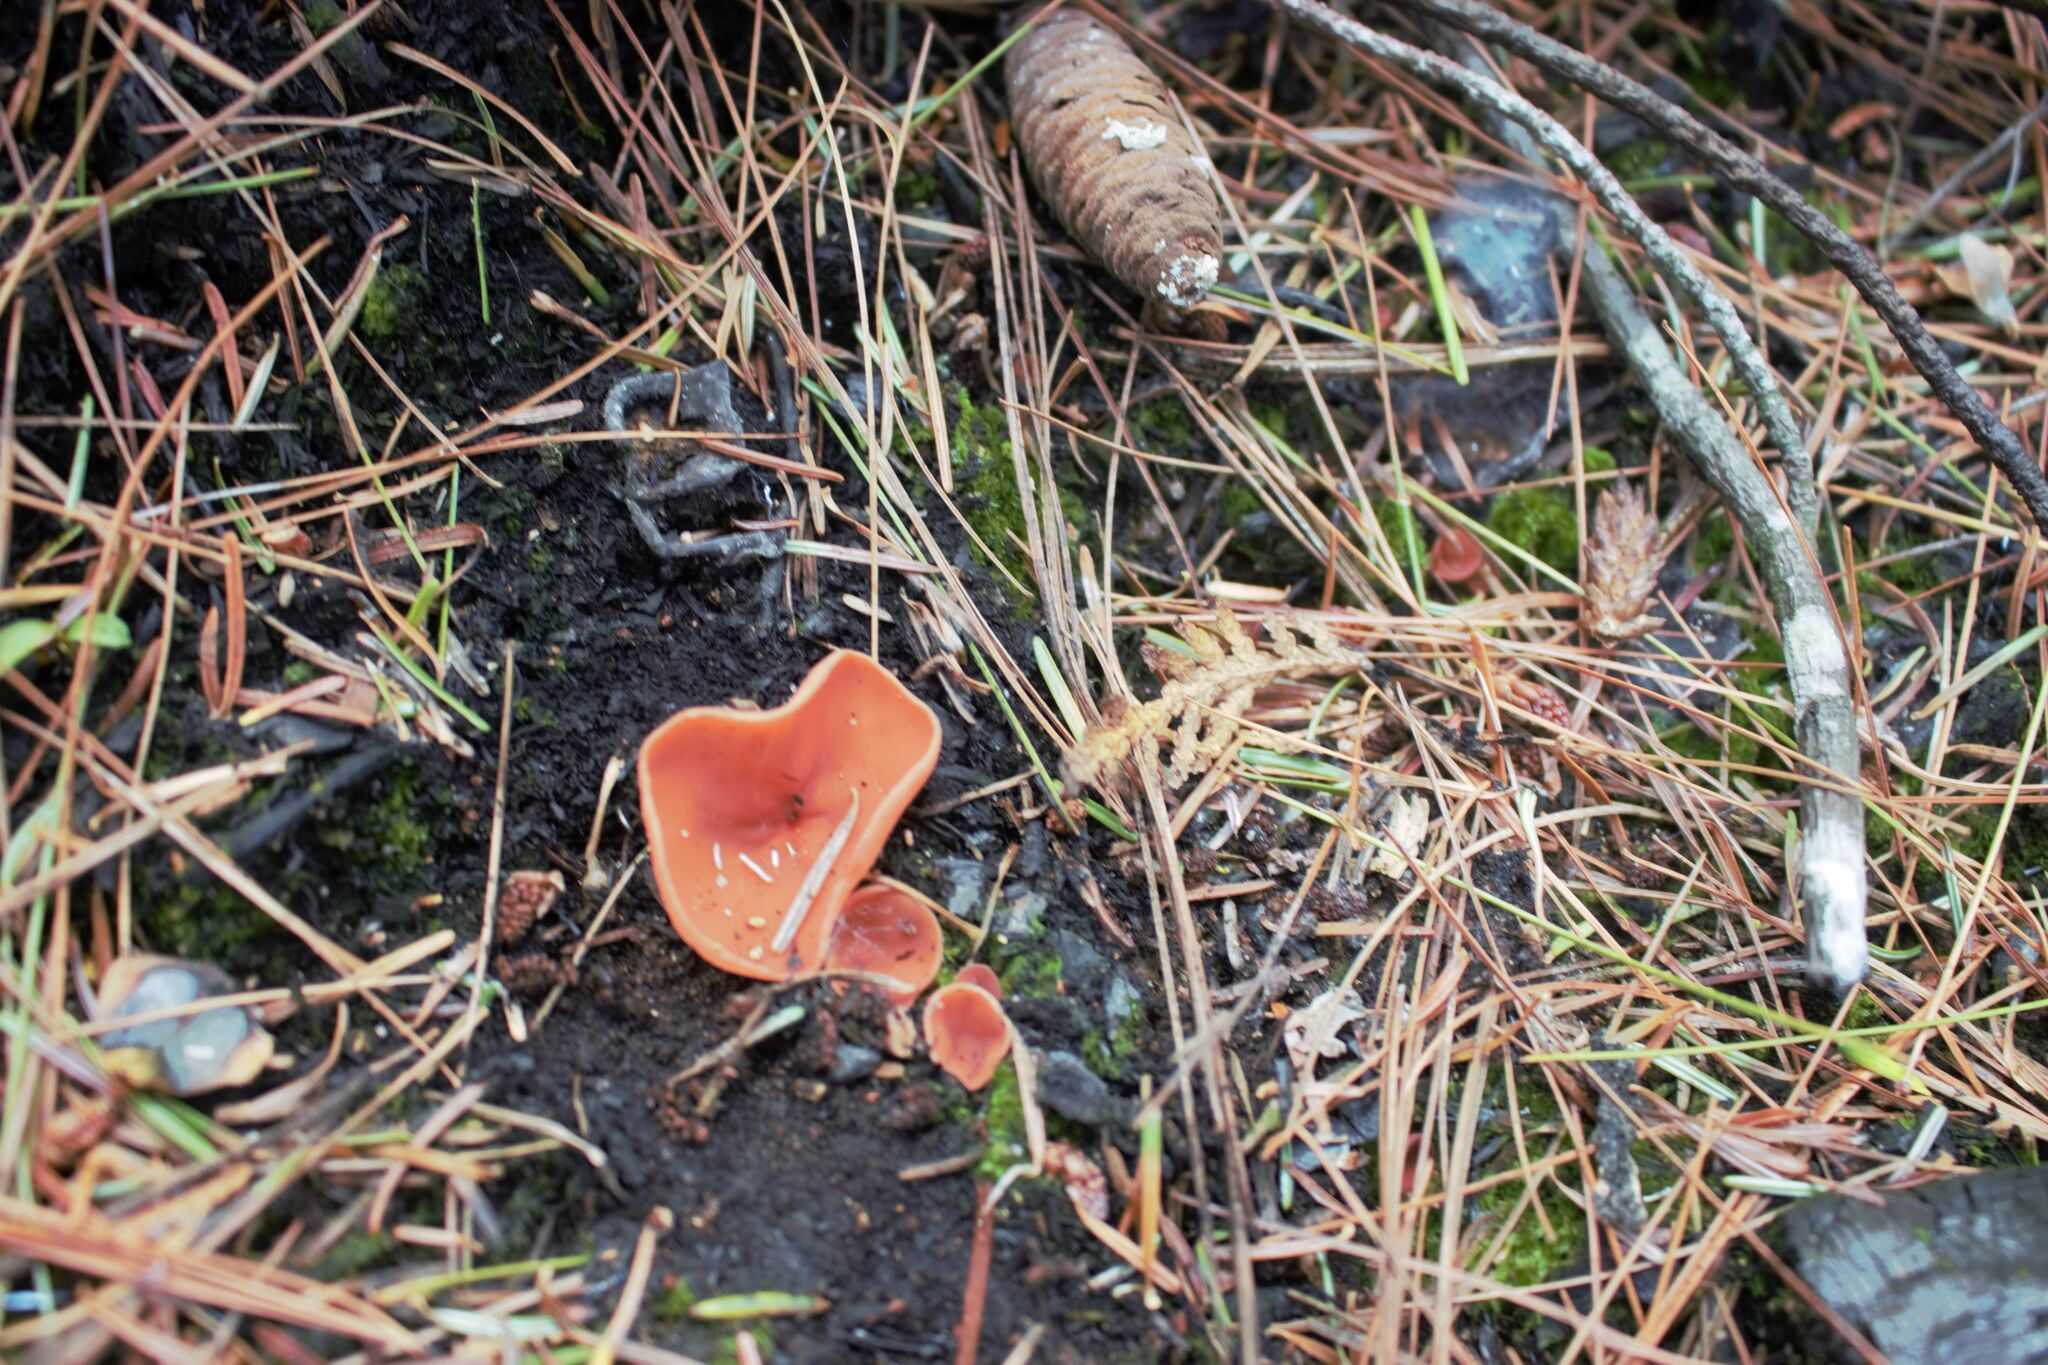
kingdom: Fungi
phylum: Ascomycota
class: Pezizomycetes
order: Pezizales
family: Pyronemataceae
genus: Pyropyxis
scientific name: Pyropyxis rubra
